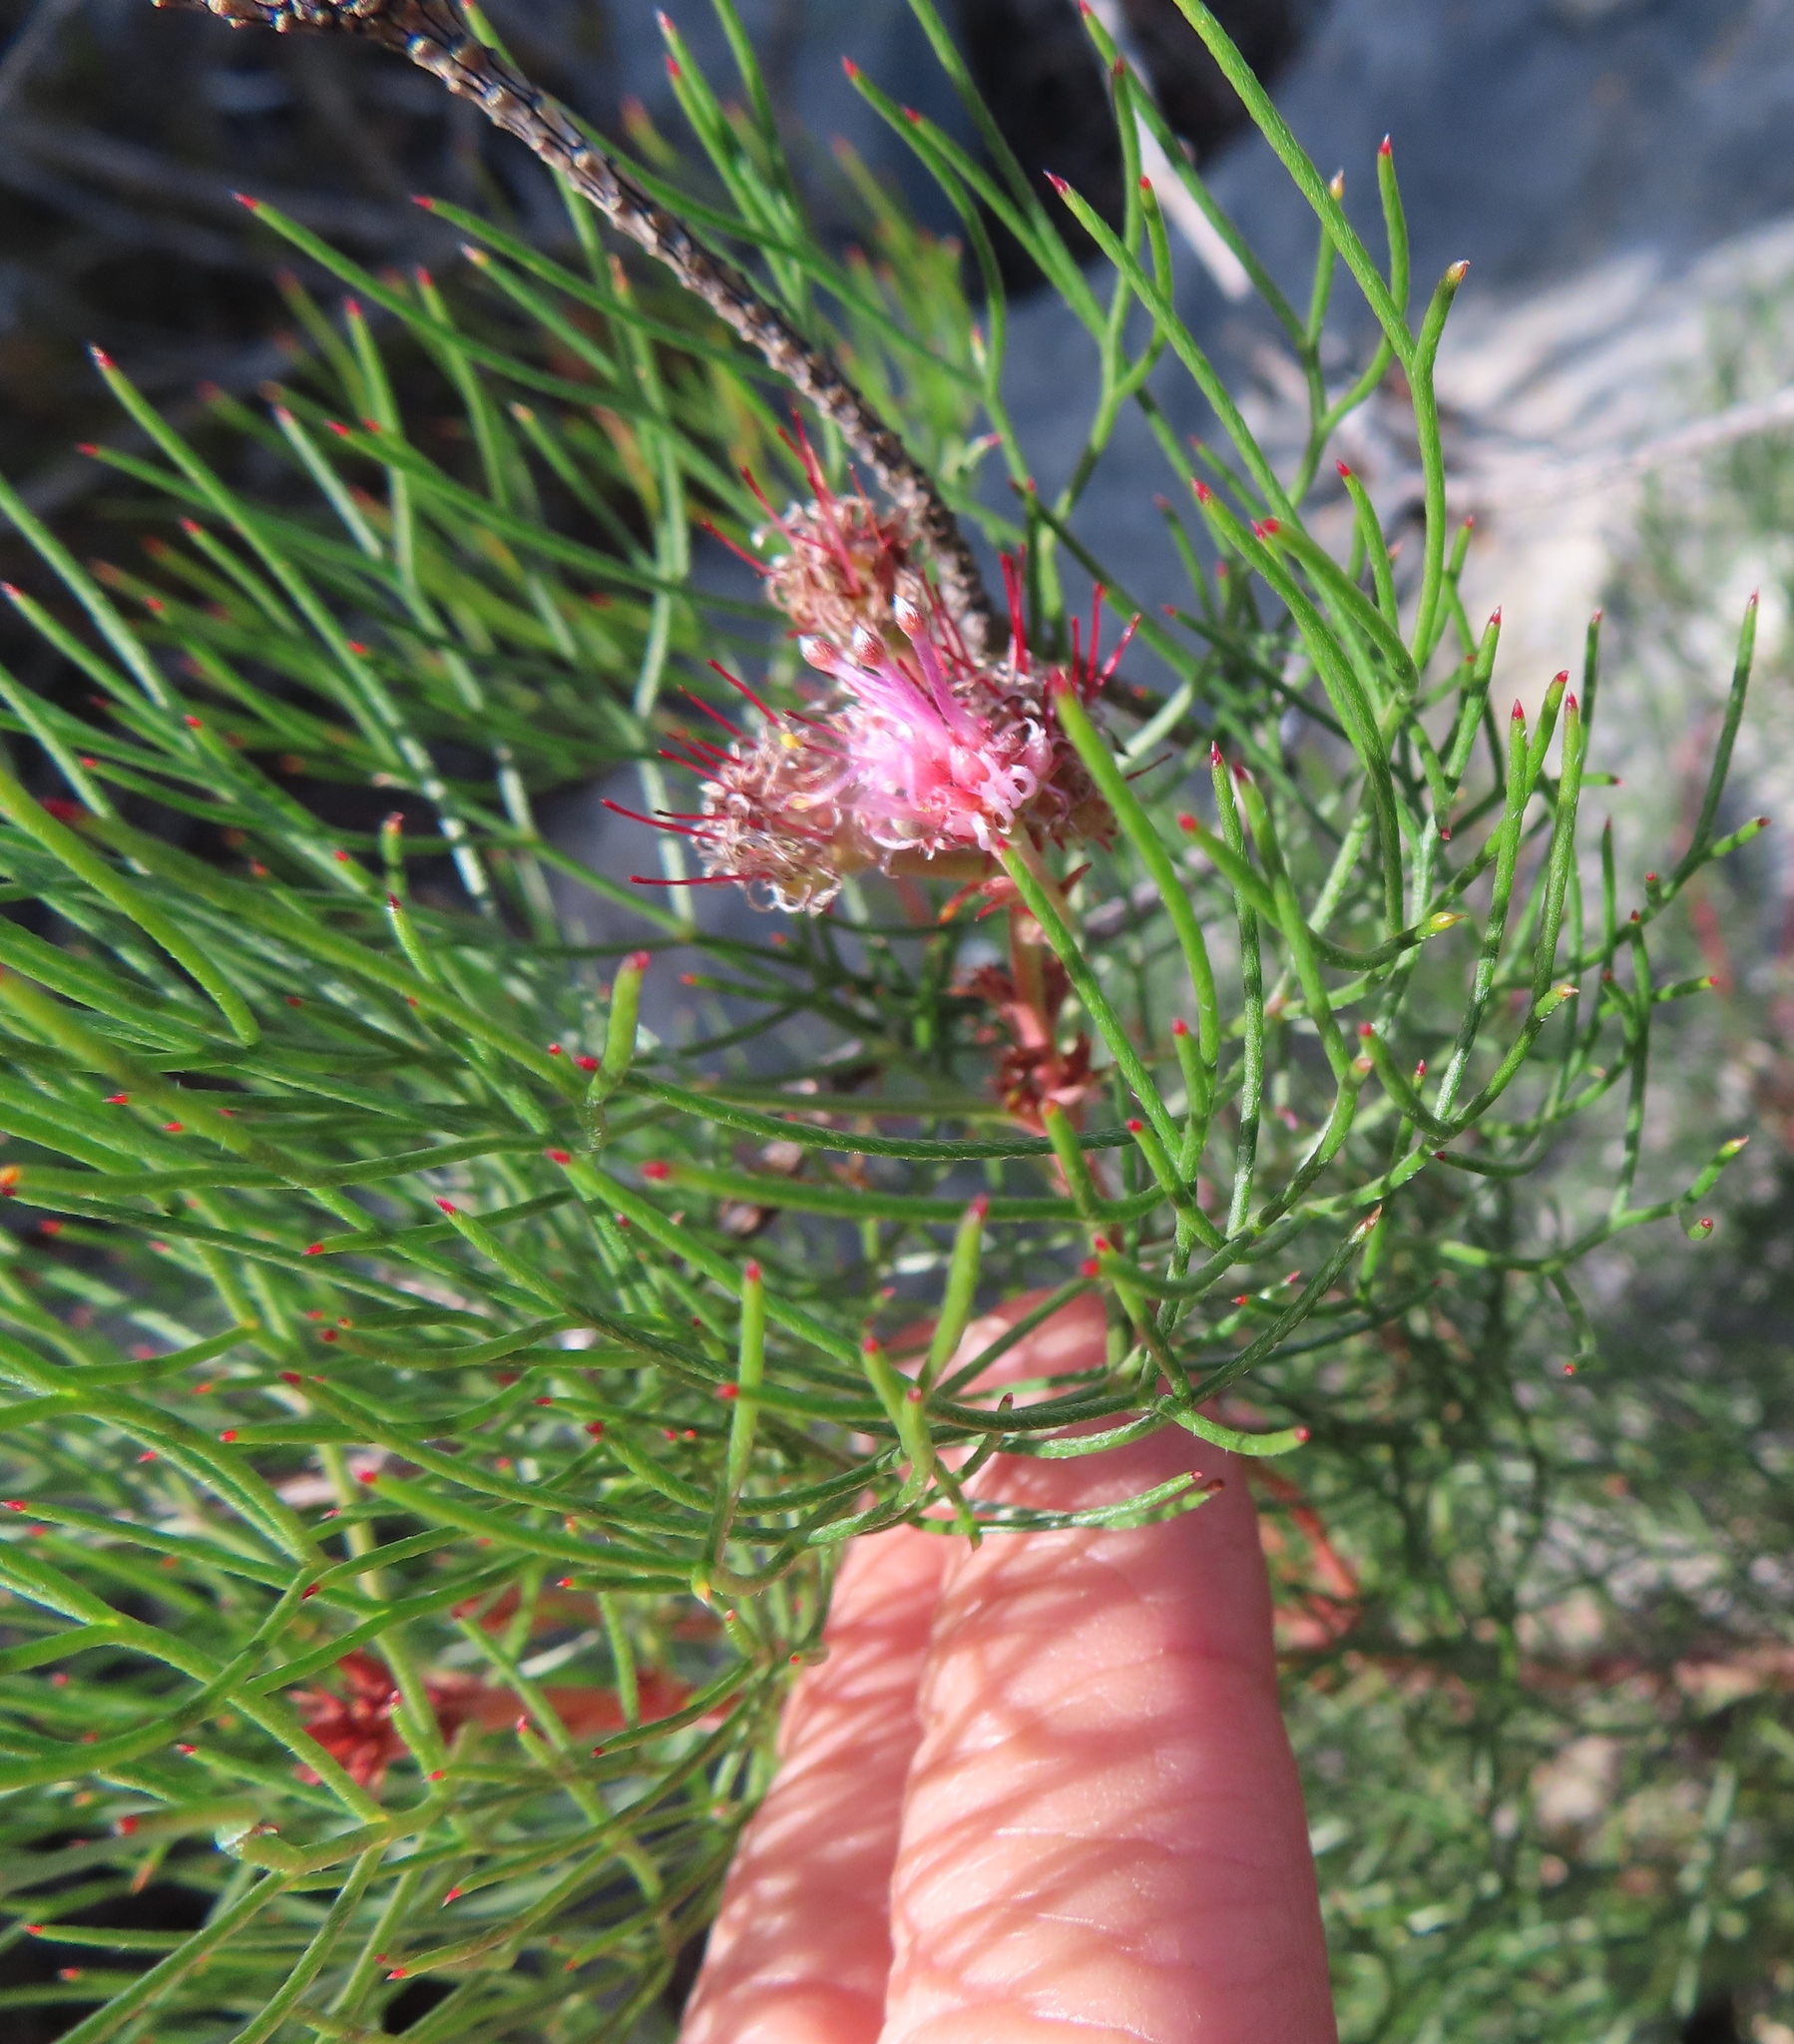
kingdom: Plantae
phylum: Tracheophyta
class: Magnoliopsida
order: Proteales
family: Proteaceae
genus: Serruria
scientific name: Serruria fasciflora
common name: Common pin spiderhead
